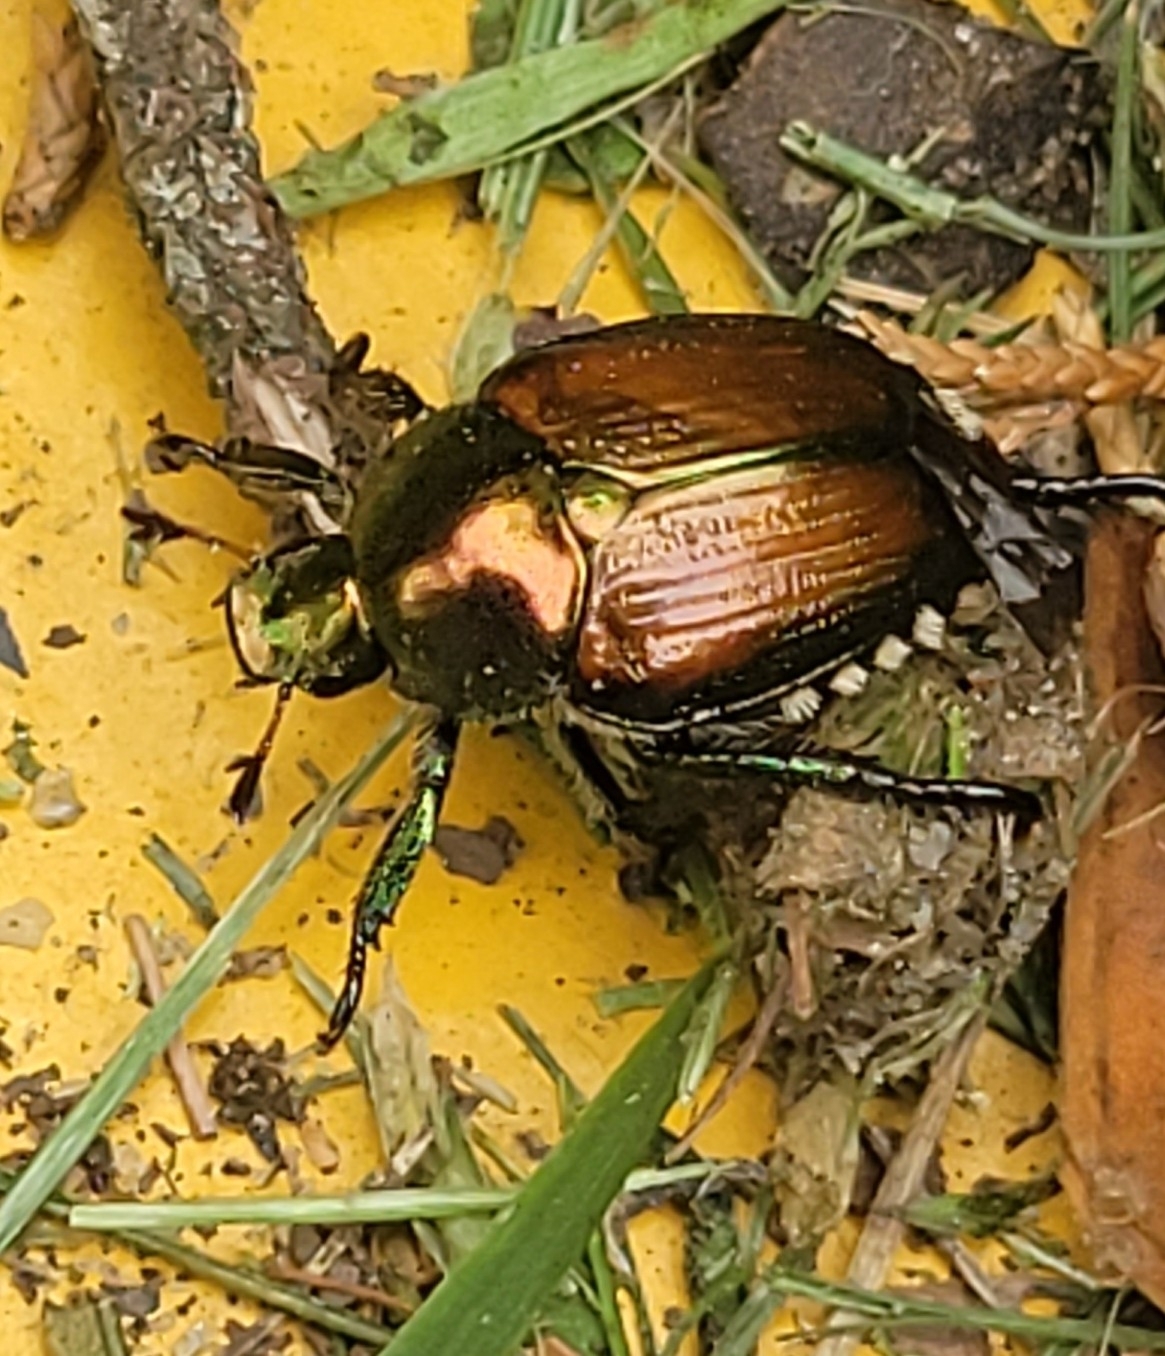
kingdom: Animalia
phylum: Arthropoda
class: Insecta
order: Coleoptera
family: Scarabaeidae
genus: Popillia
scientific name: Popillia japonica
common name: Japanese beetle
